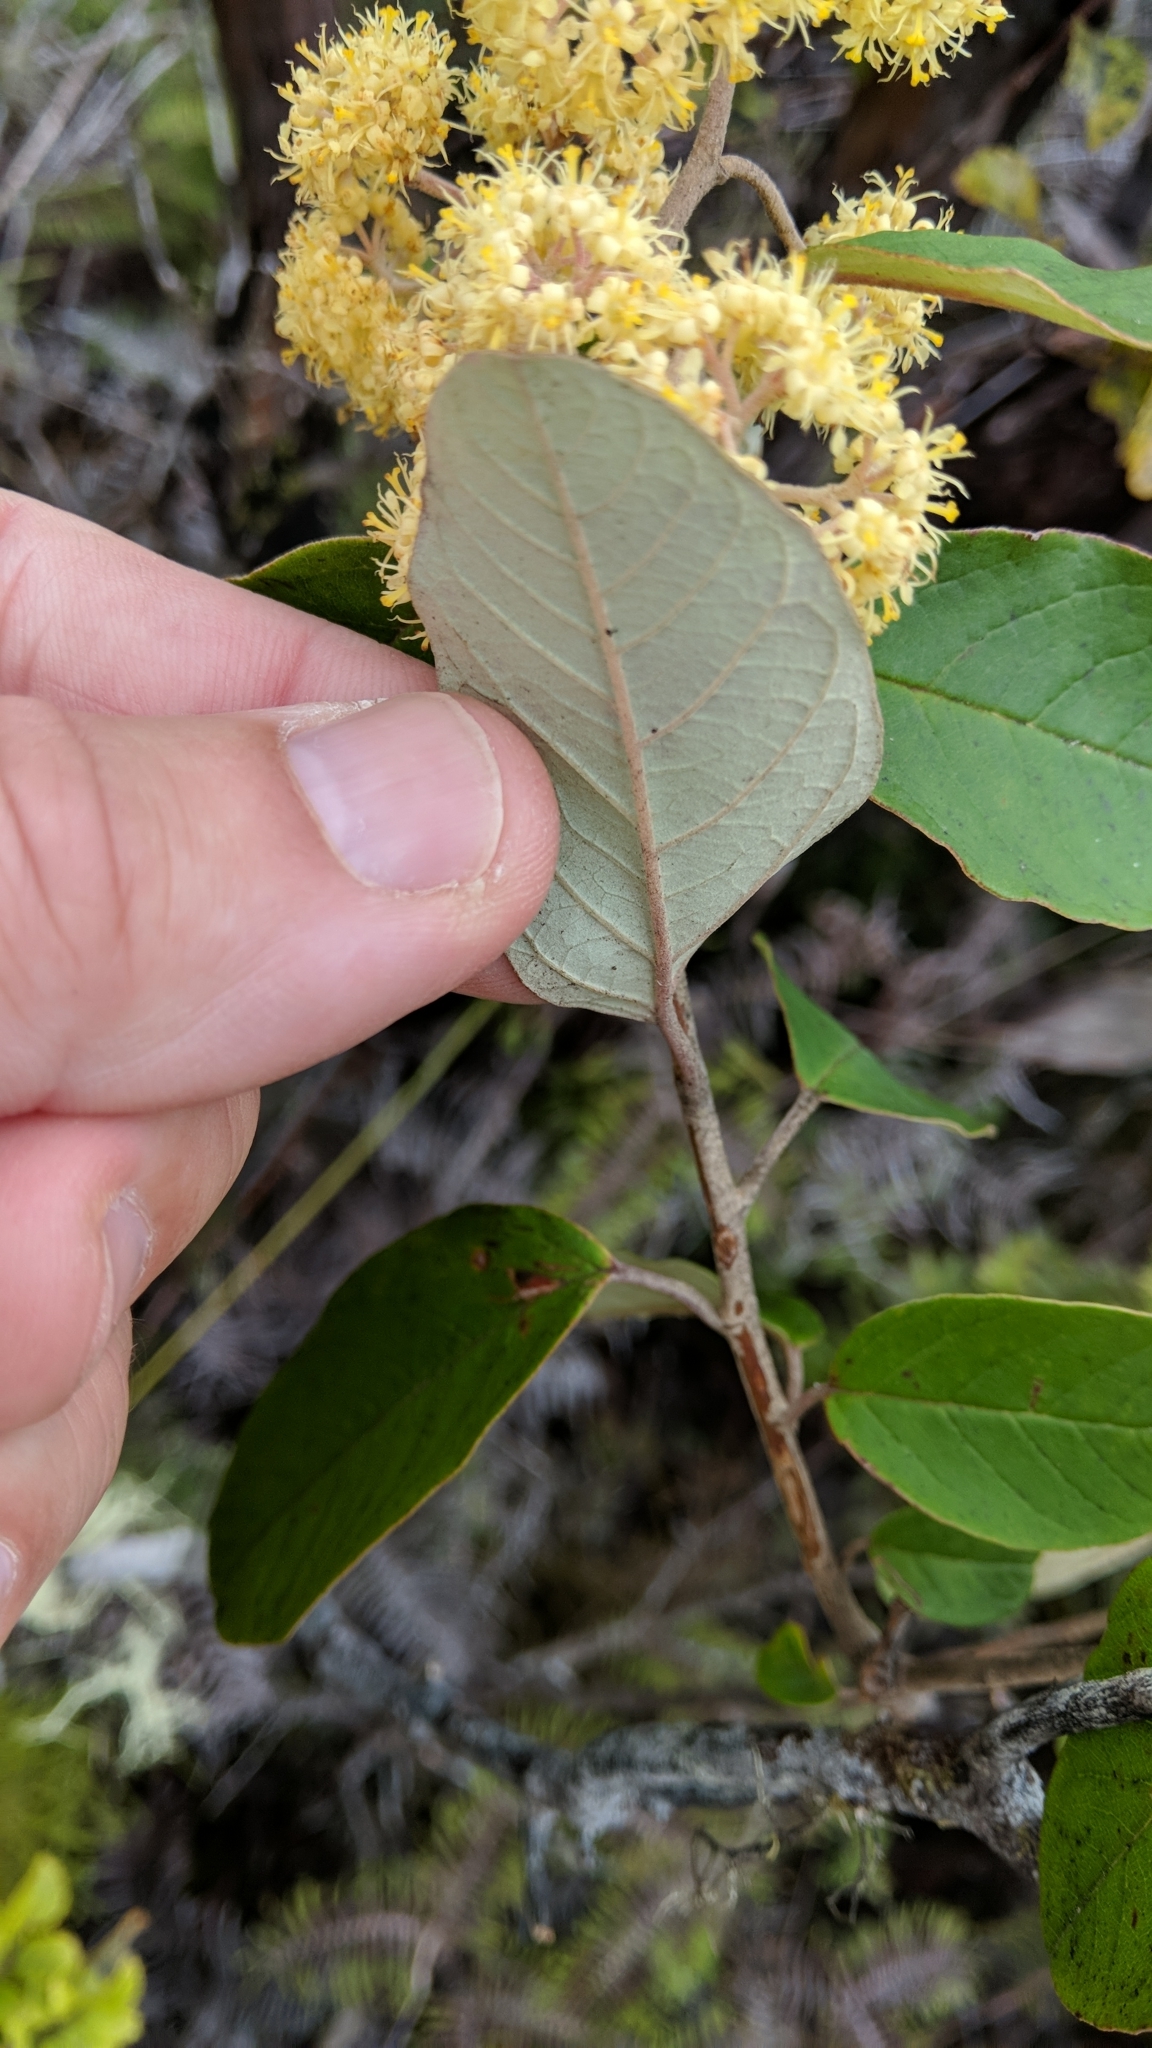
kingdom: Plantae
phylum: Tracheophyta
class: Magnoliopsida
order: Rosales
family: Rhamnaceae
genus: Pomaderris
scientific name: Pomaderris kumeraho
